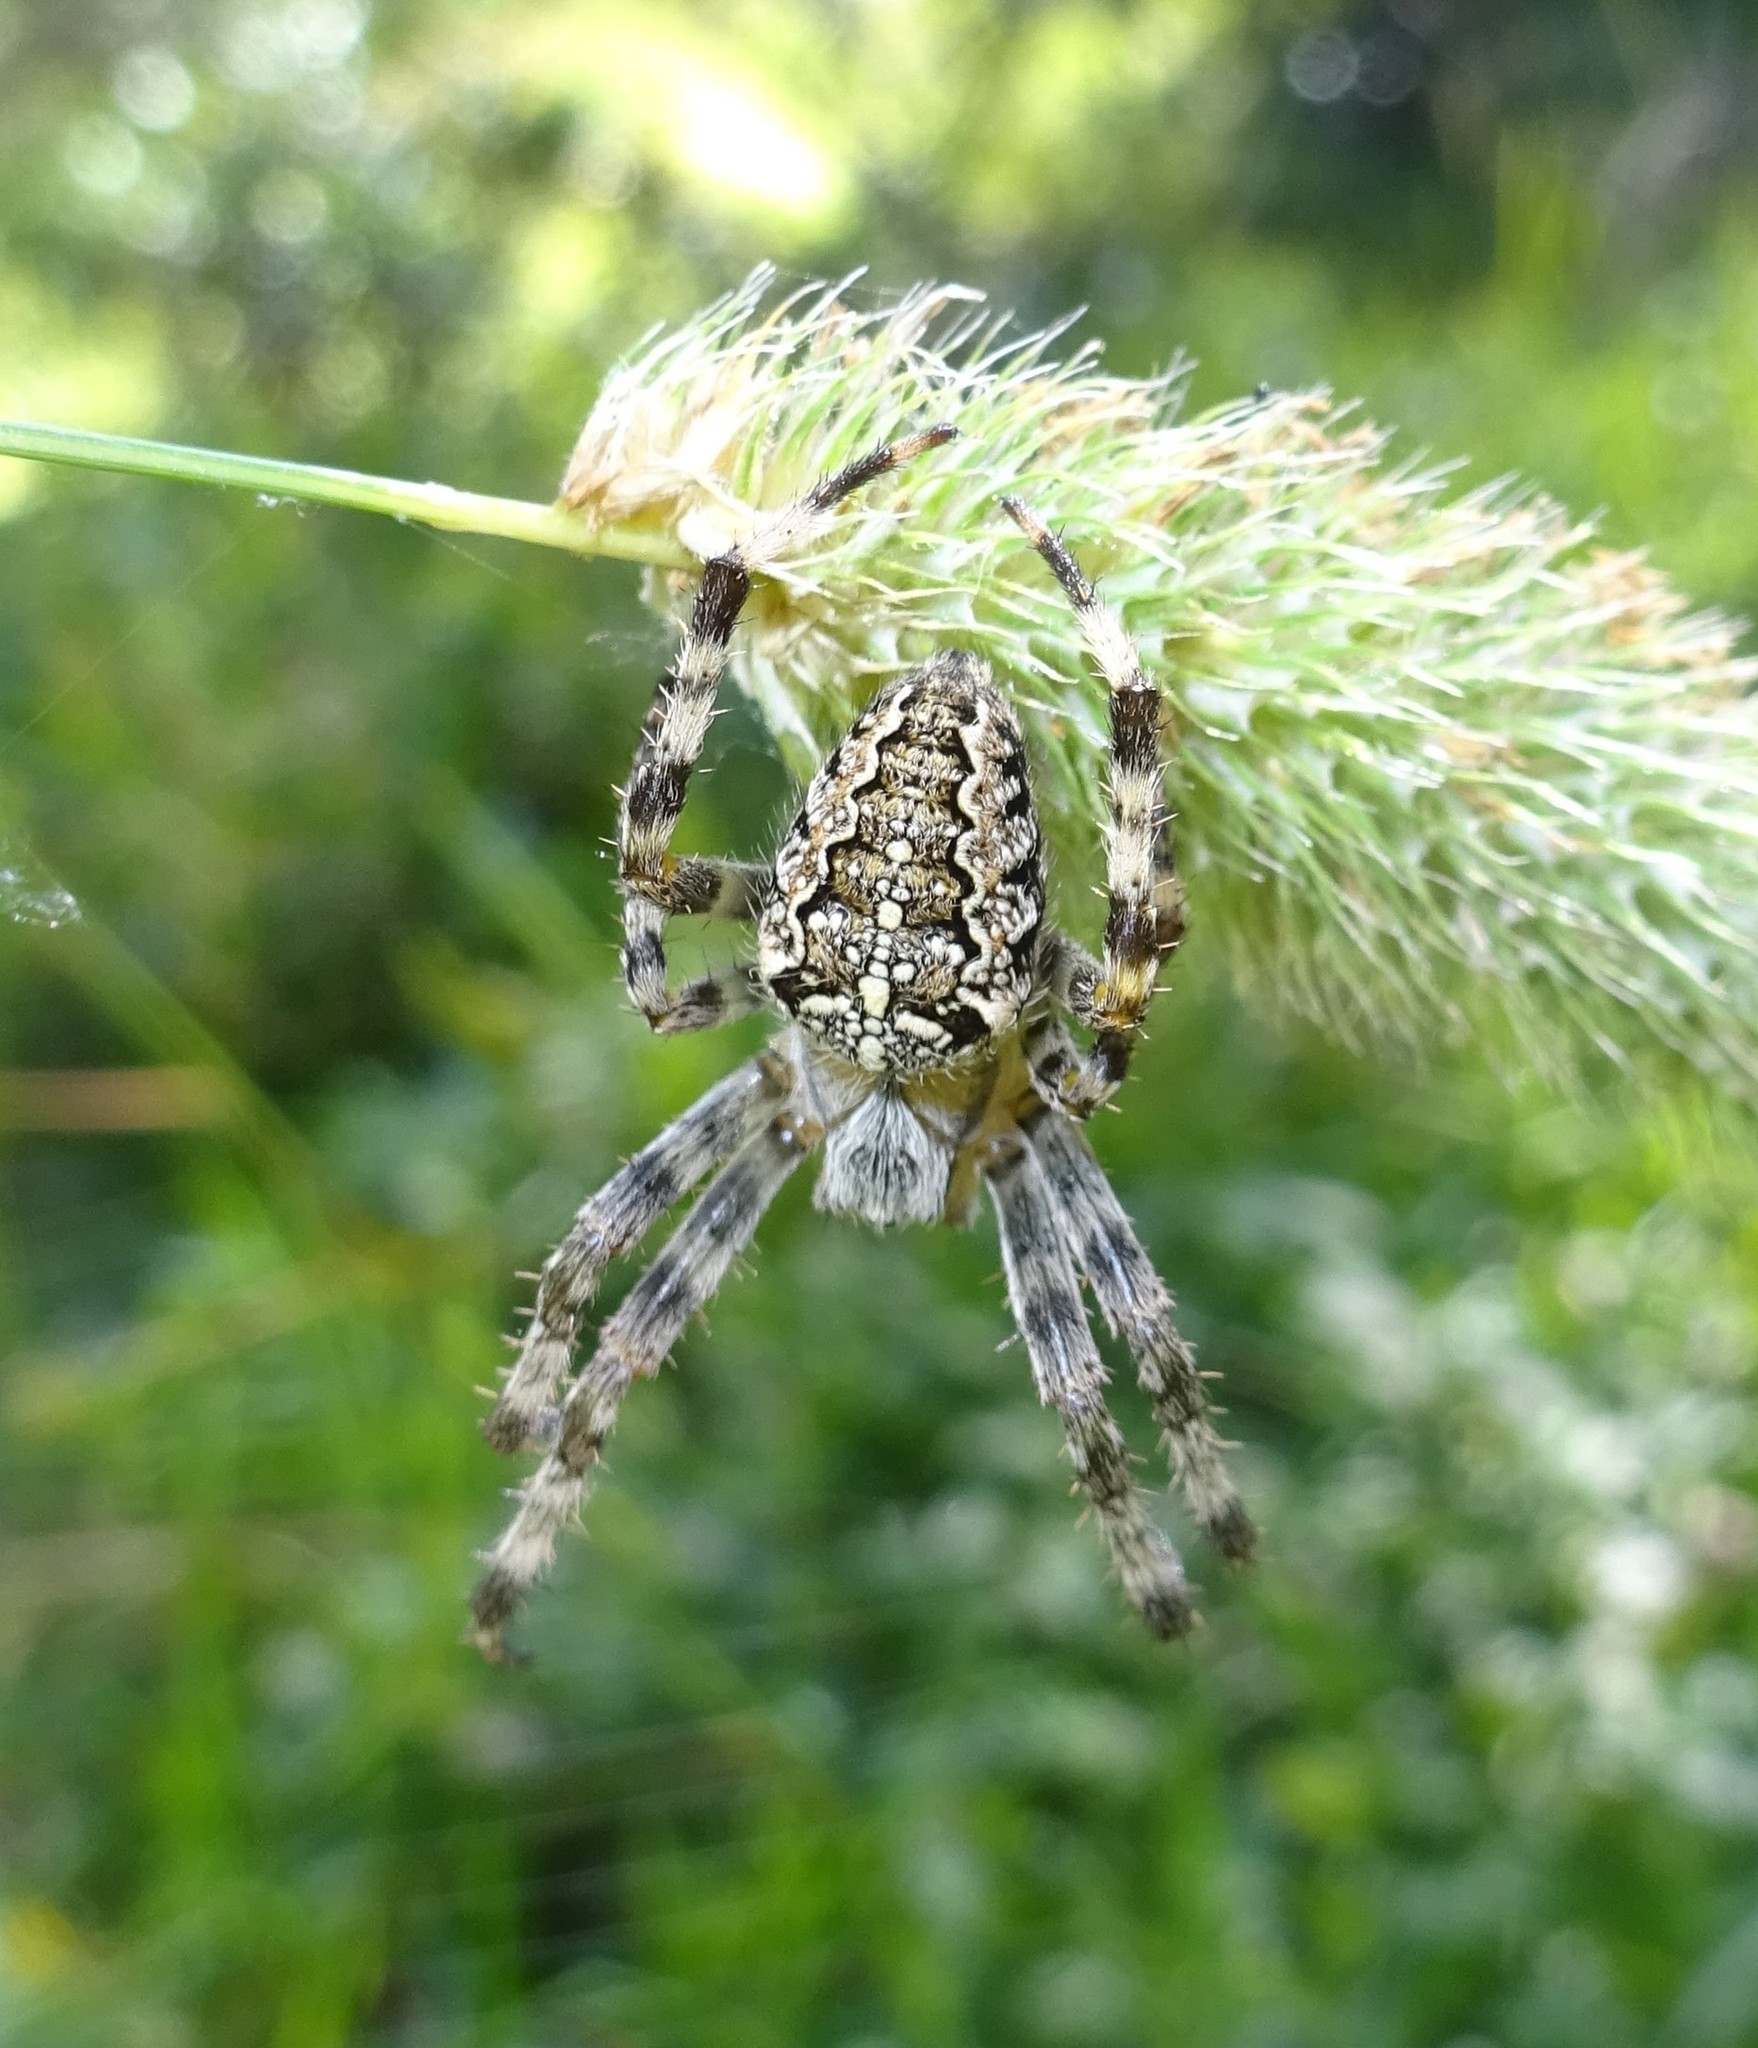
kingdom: Animalia
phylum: Arthropoda
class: Arachnida
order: Araneae
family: Araneidae
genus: Araneus
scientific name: Araneus diadematus
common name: Cross orbweaver
